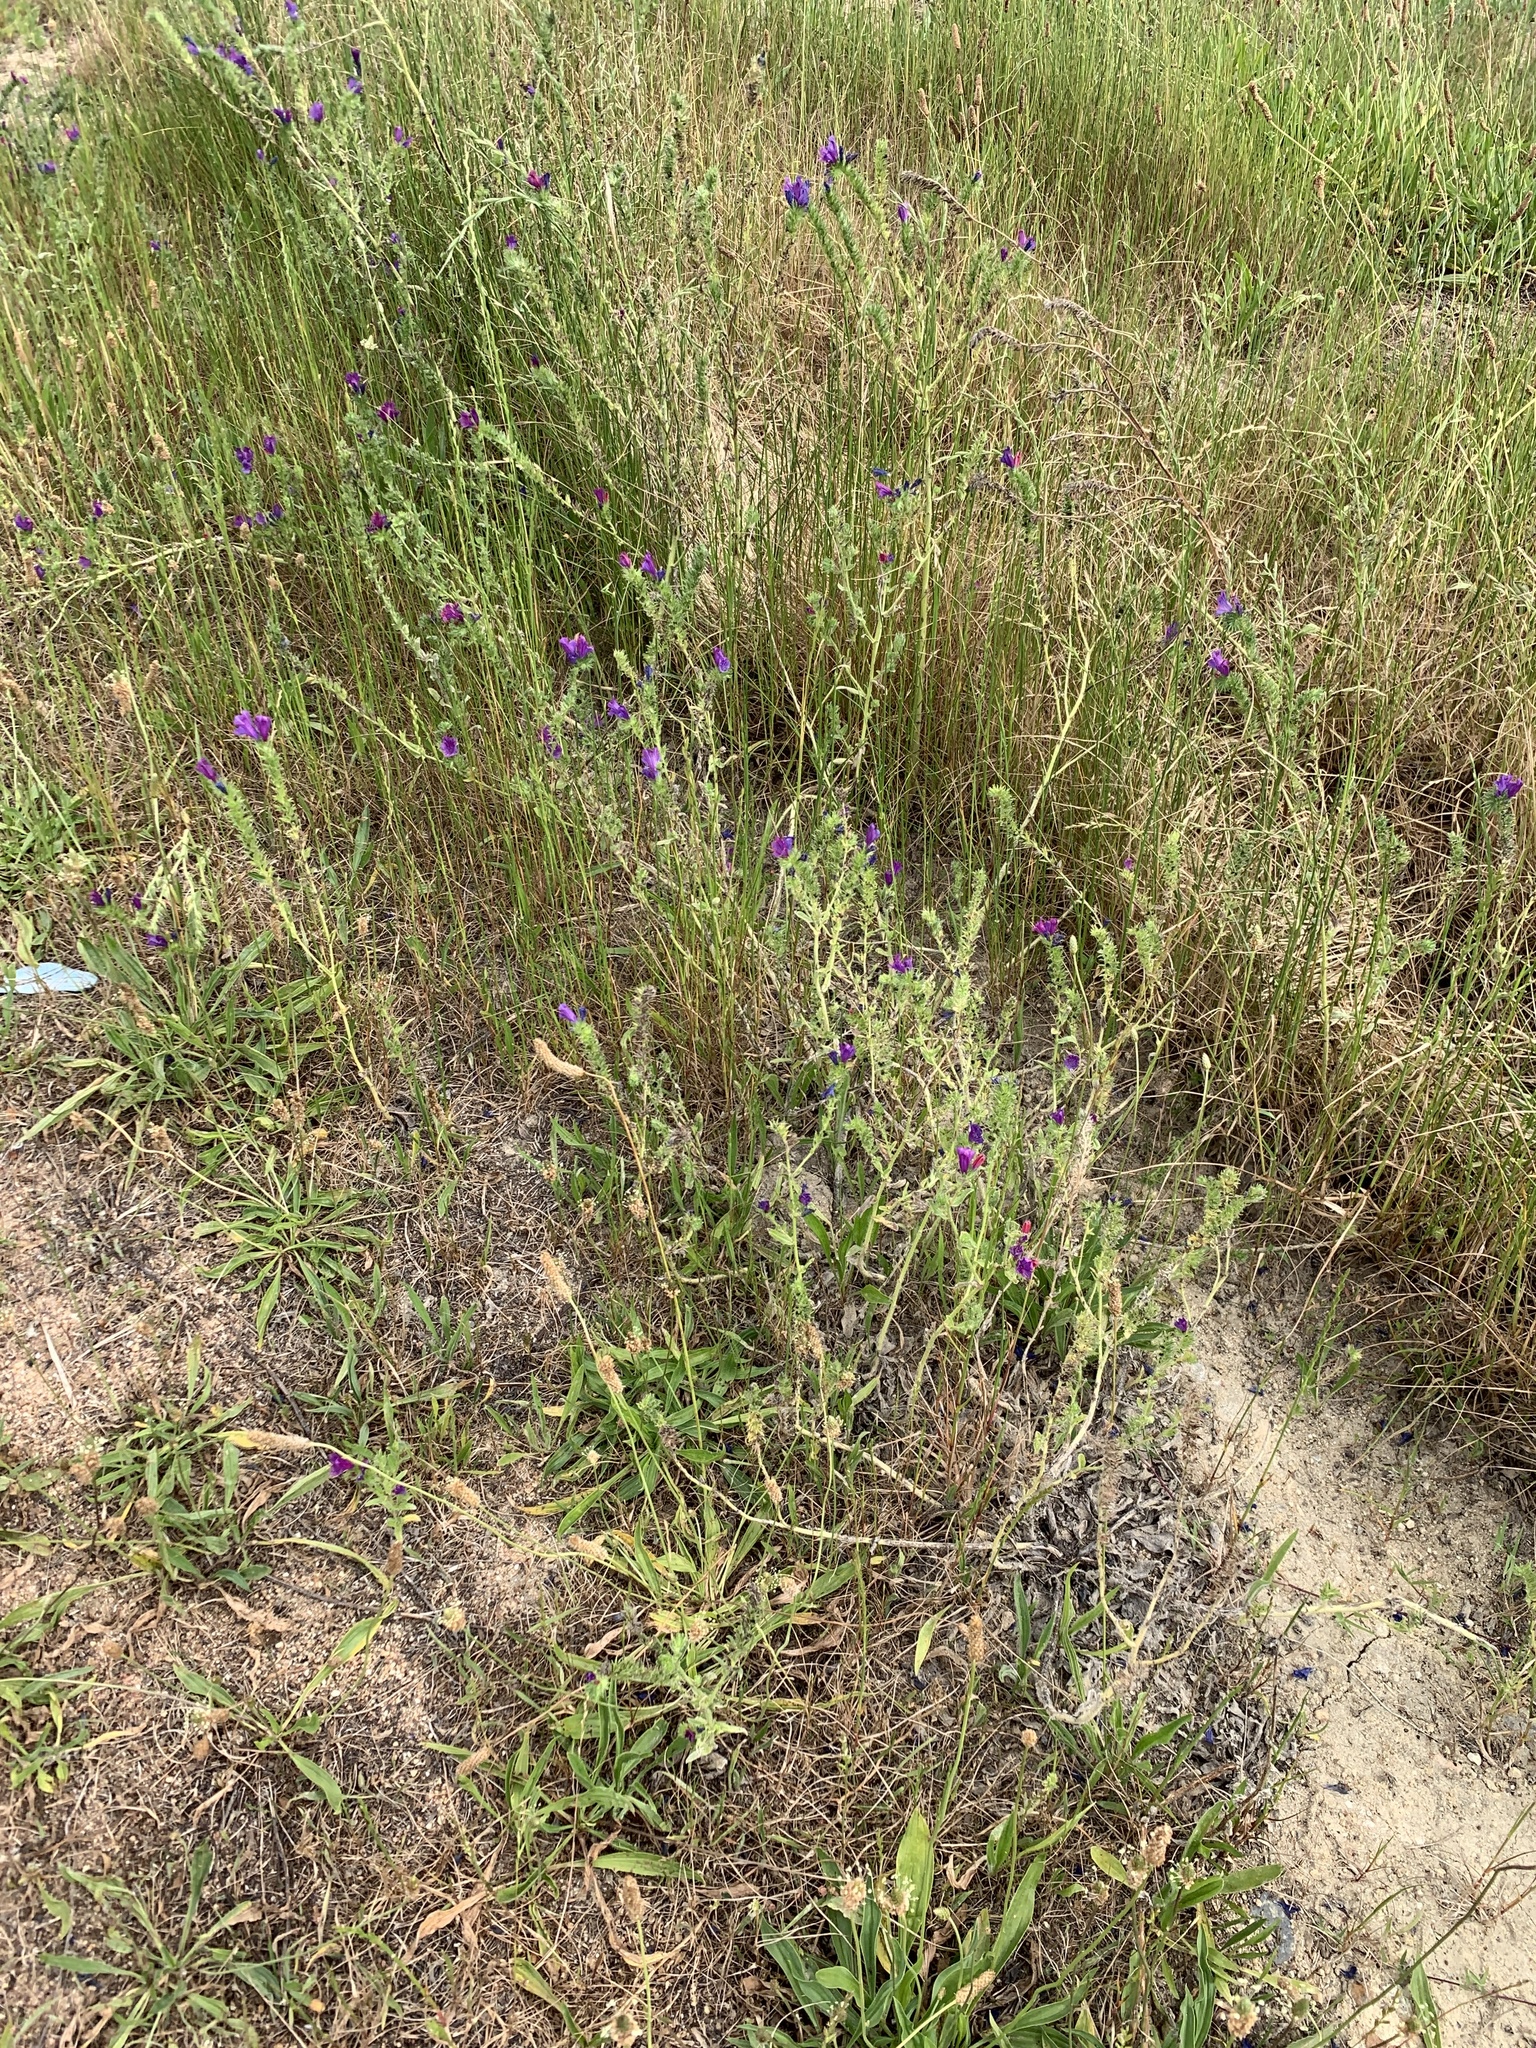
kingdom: Plantae
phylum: Tracheophyta
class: Magnoliopsida
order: Boraginales
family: Boraginaceae
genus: Echium
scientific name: Echium plantagineum
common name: Purple viper's-bugloss
